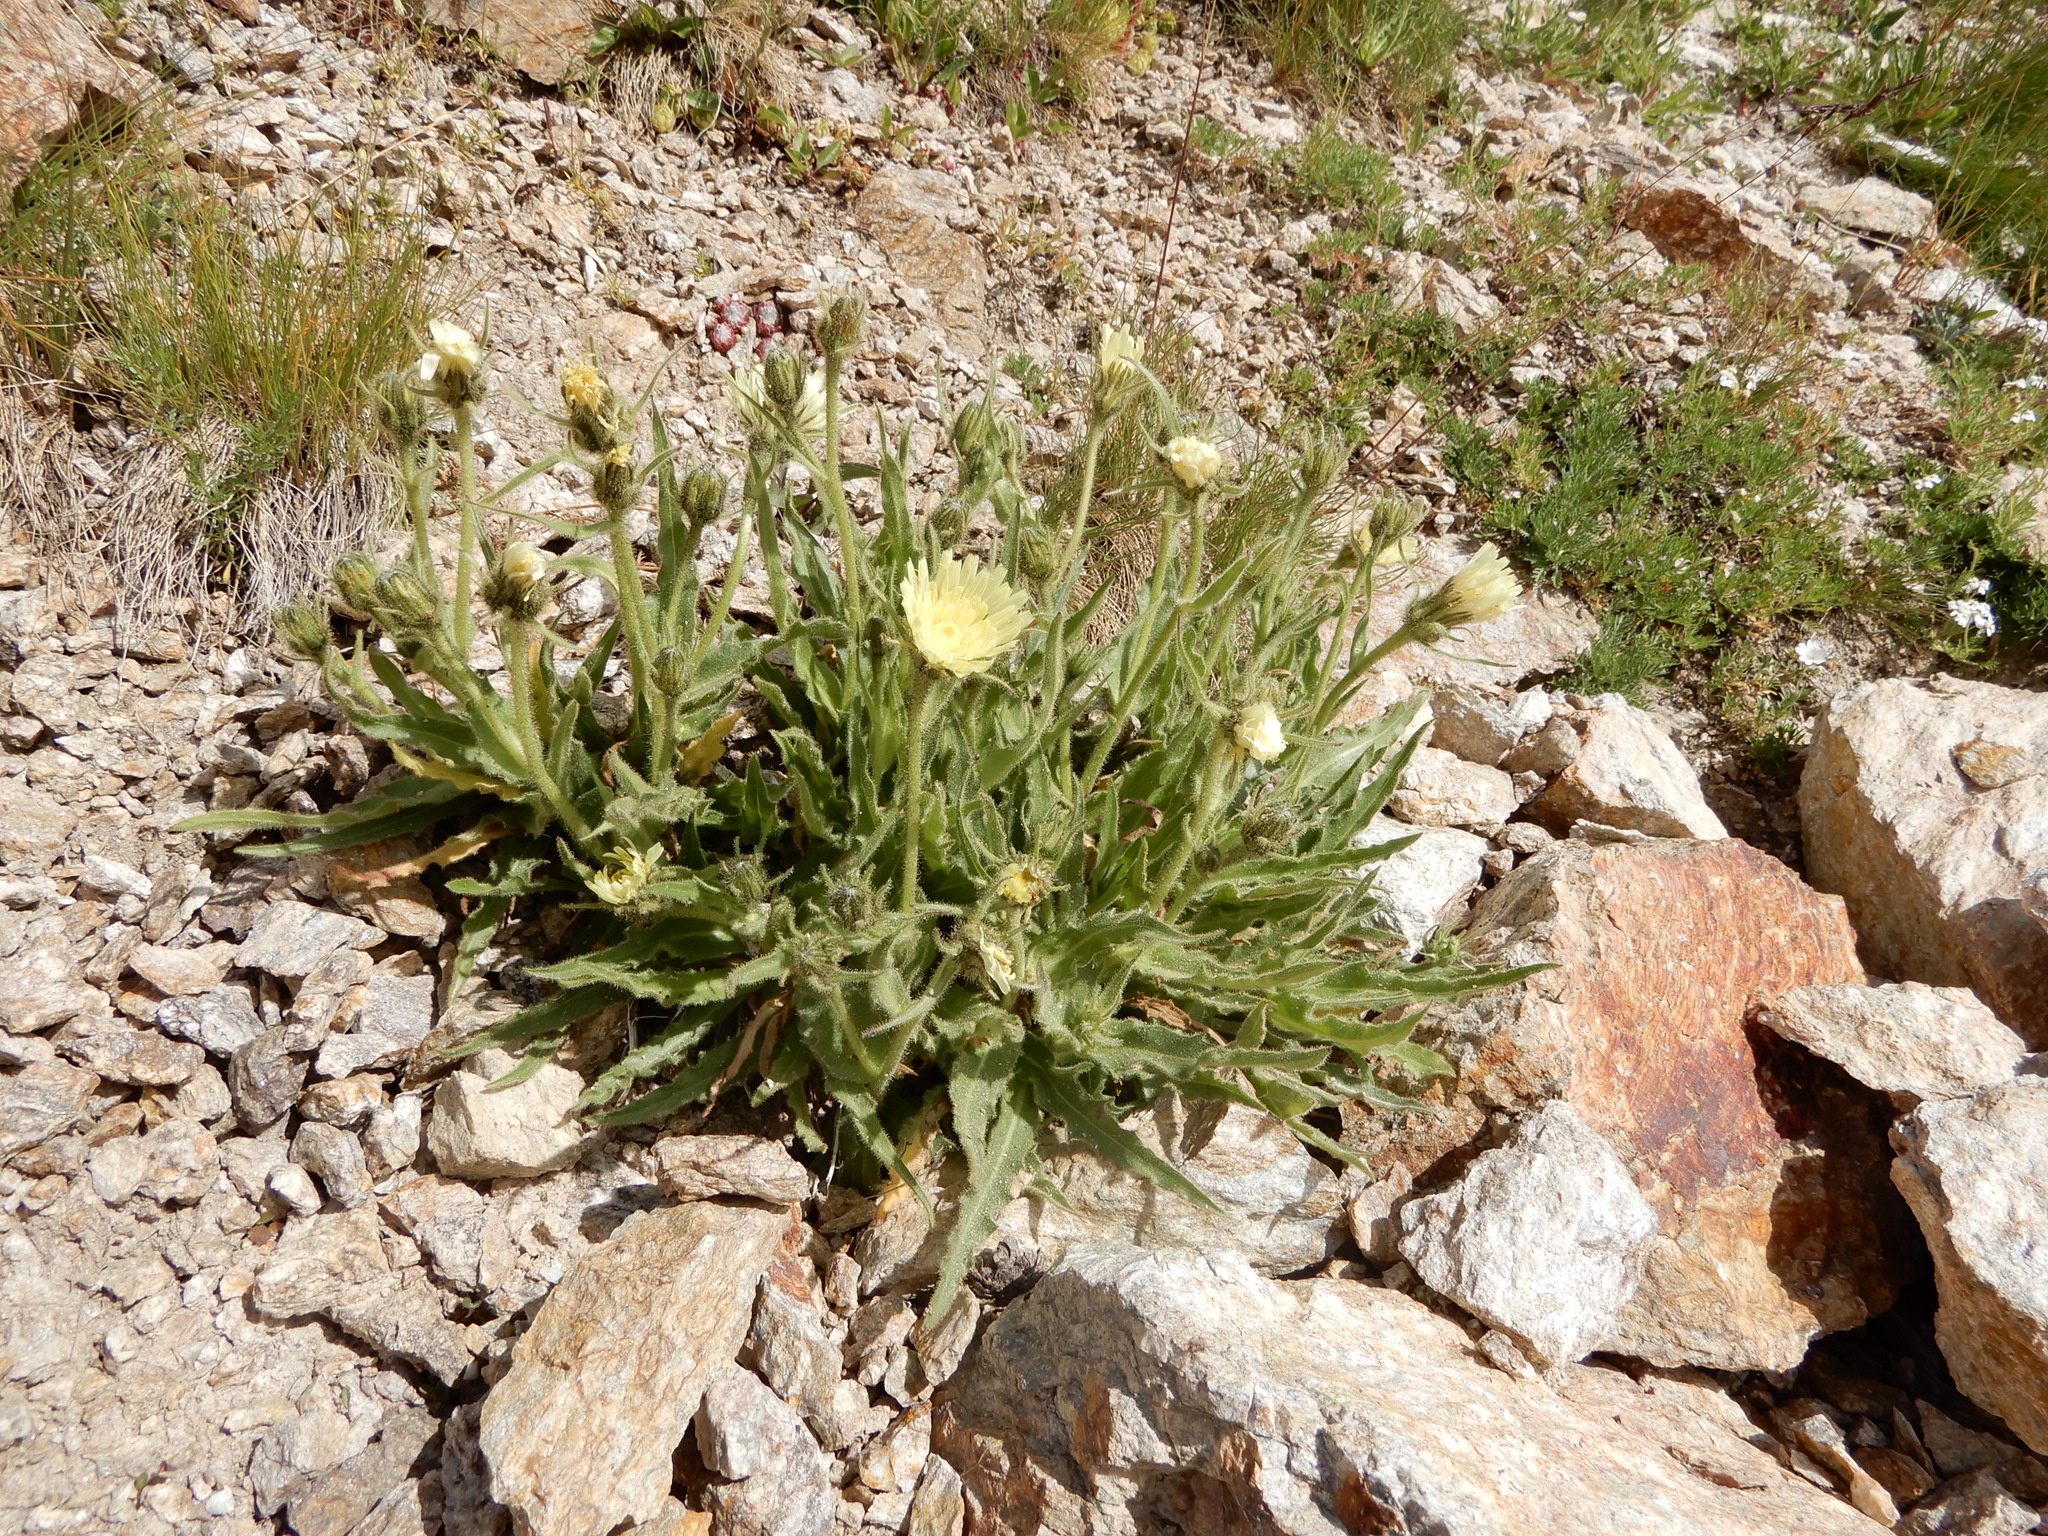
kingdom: Plantae
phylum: Tracheophyta
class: Magnoliopsida
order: Asterales
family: Asteraceae
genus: Schlagintweitia
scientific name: Schlagintweitia intybacea
